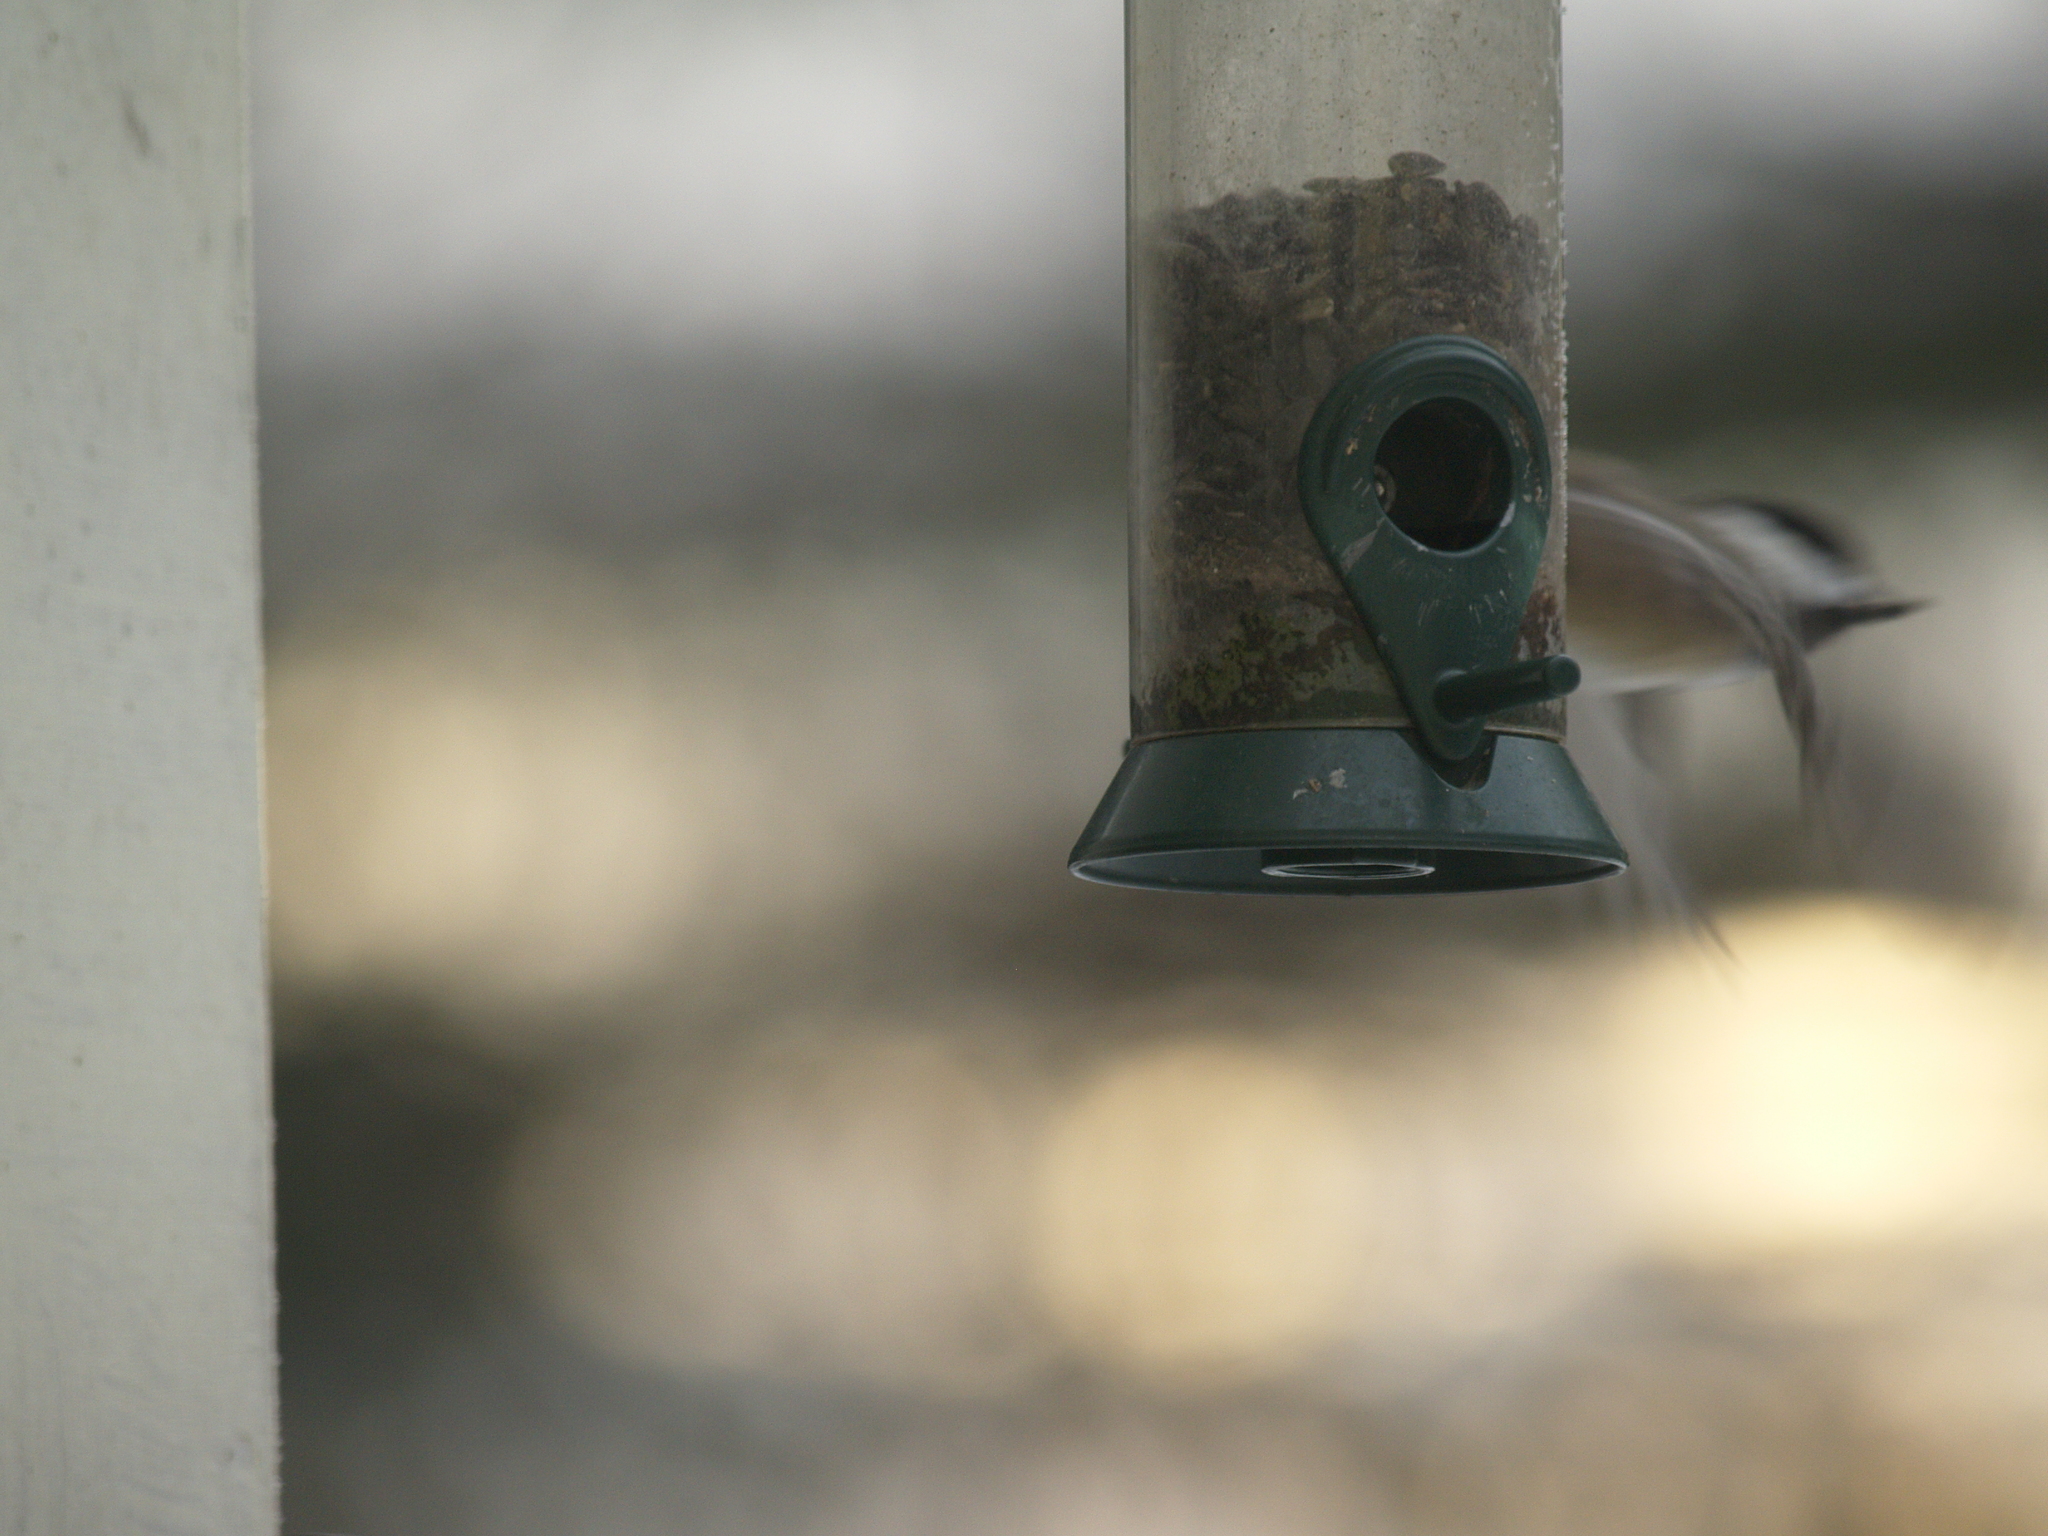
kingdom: Animalia
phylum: Chordata
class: Aves
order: Passeriformes
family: Paridae
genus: Poecile
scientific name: Poecile atricapillus
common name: Black-capped chickadee
